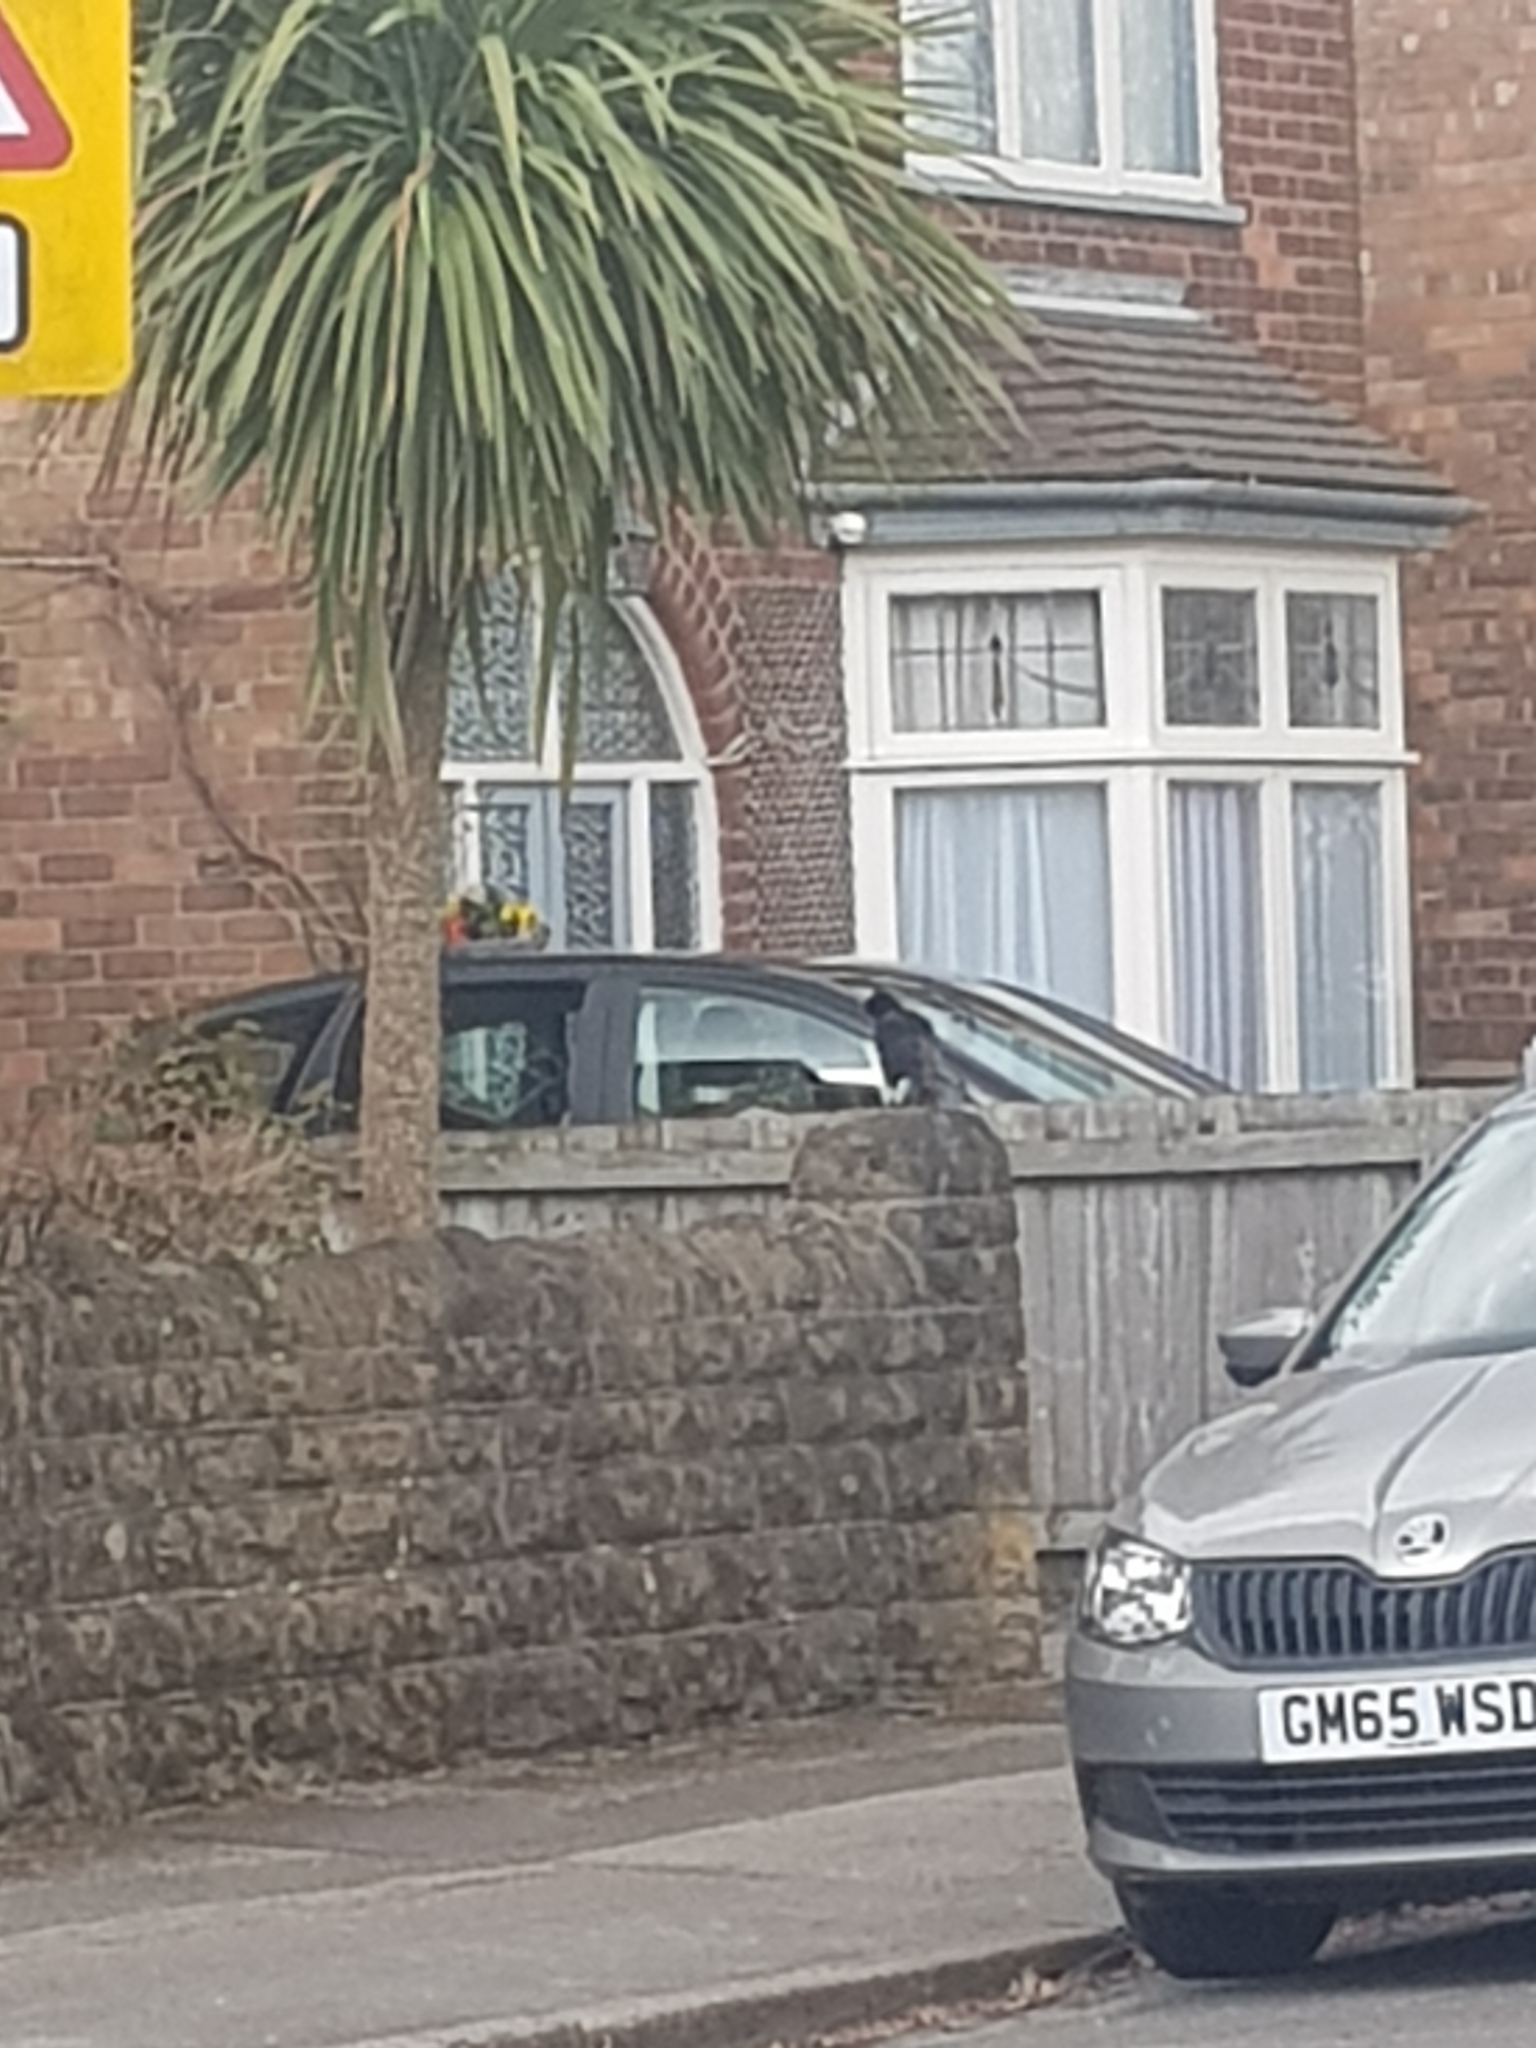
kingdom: Animalia
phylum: Chordata
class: Aves
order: Passeriformes
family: Corvidae
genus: Corvus
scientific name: Corvus corone
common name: Carrion crow
